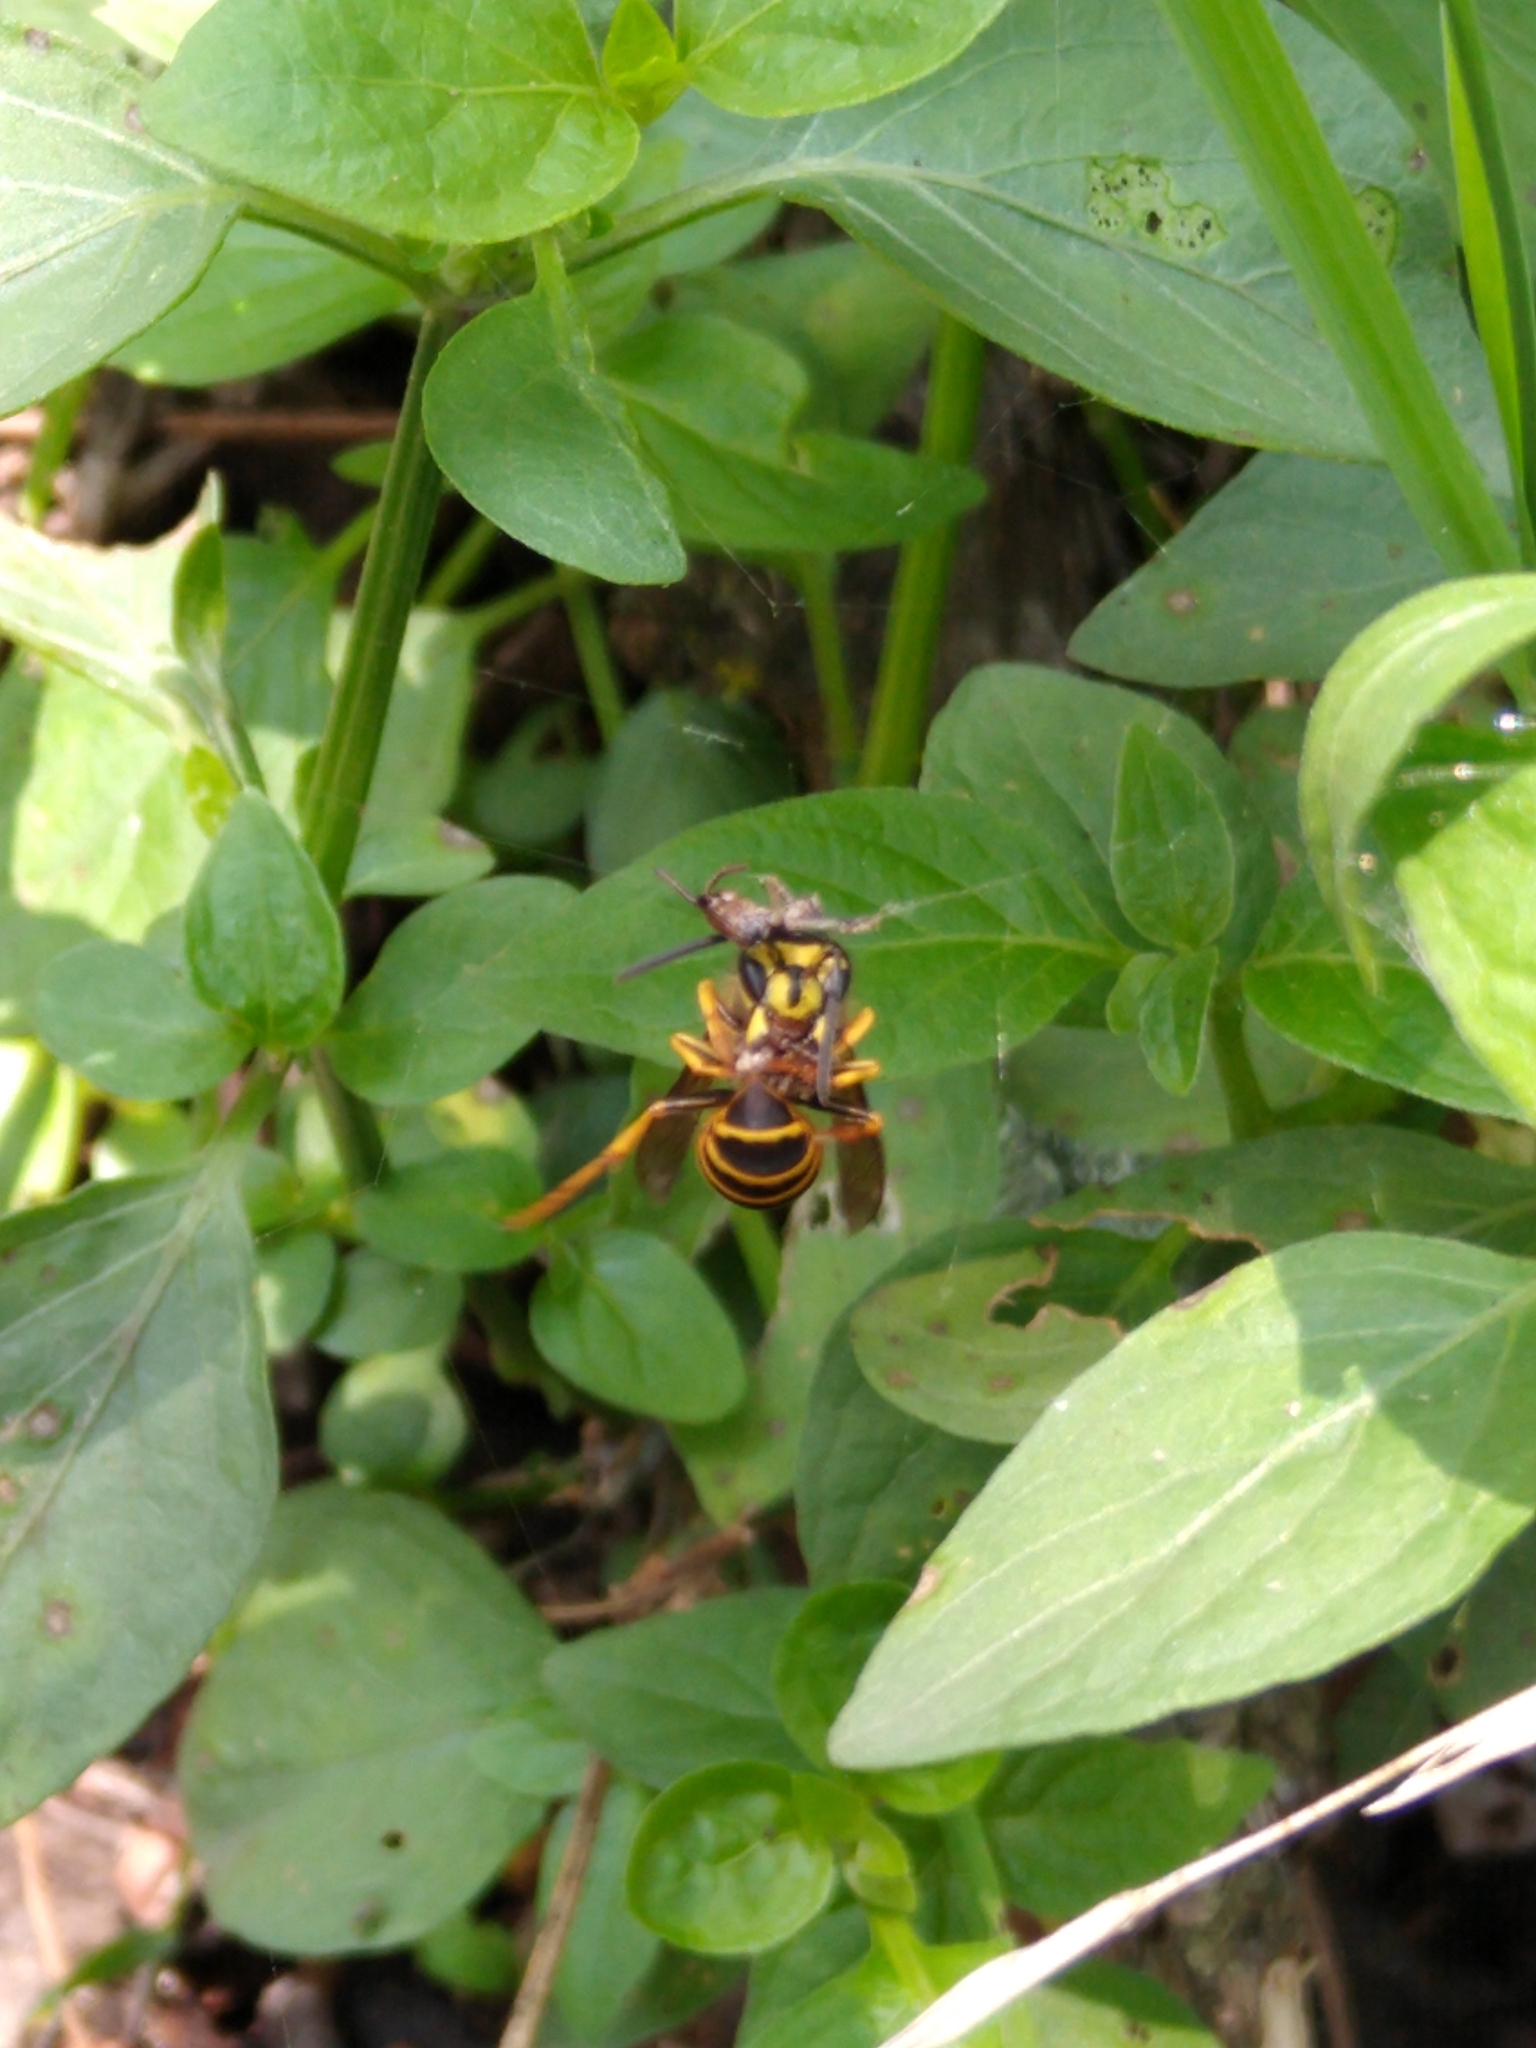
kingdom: Animalia
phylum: Arthropoda
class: Insecta
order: Hymenoptera
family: Vespidae
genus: Vespula
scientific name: Vespula squamosa
